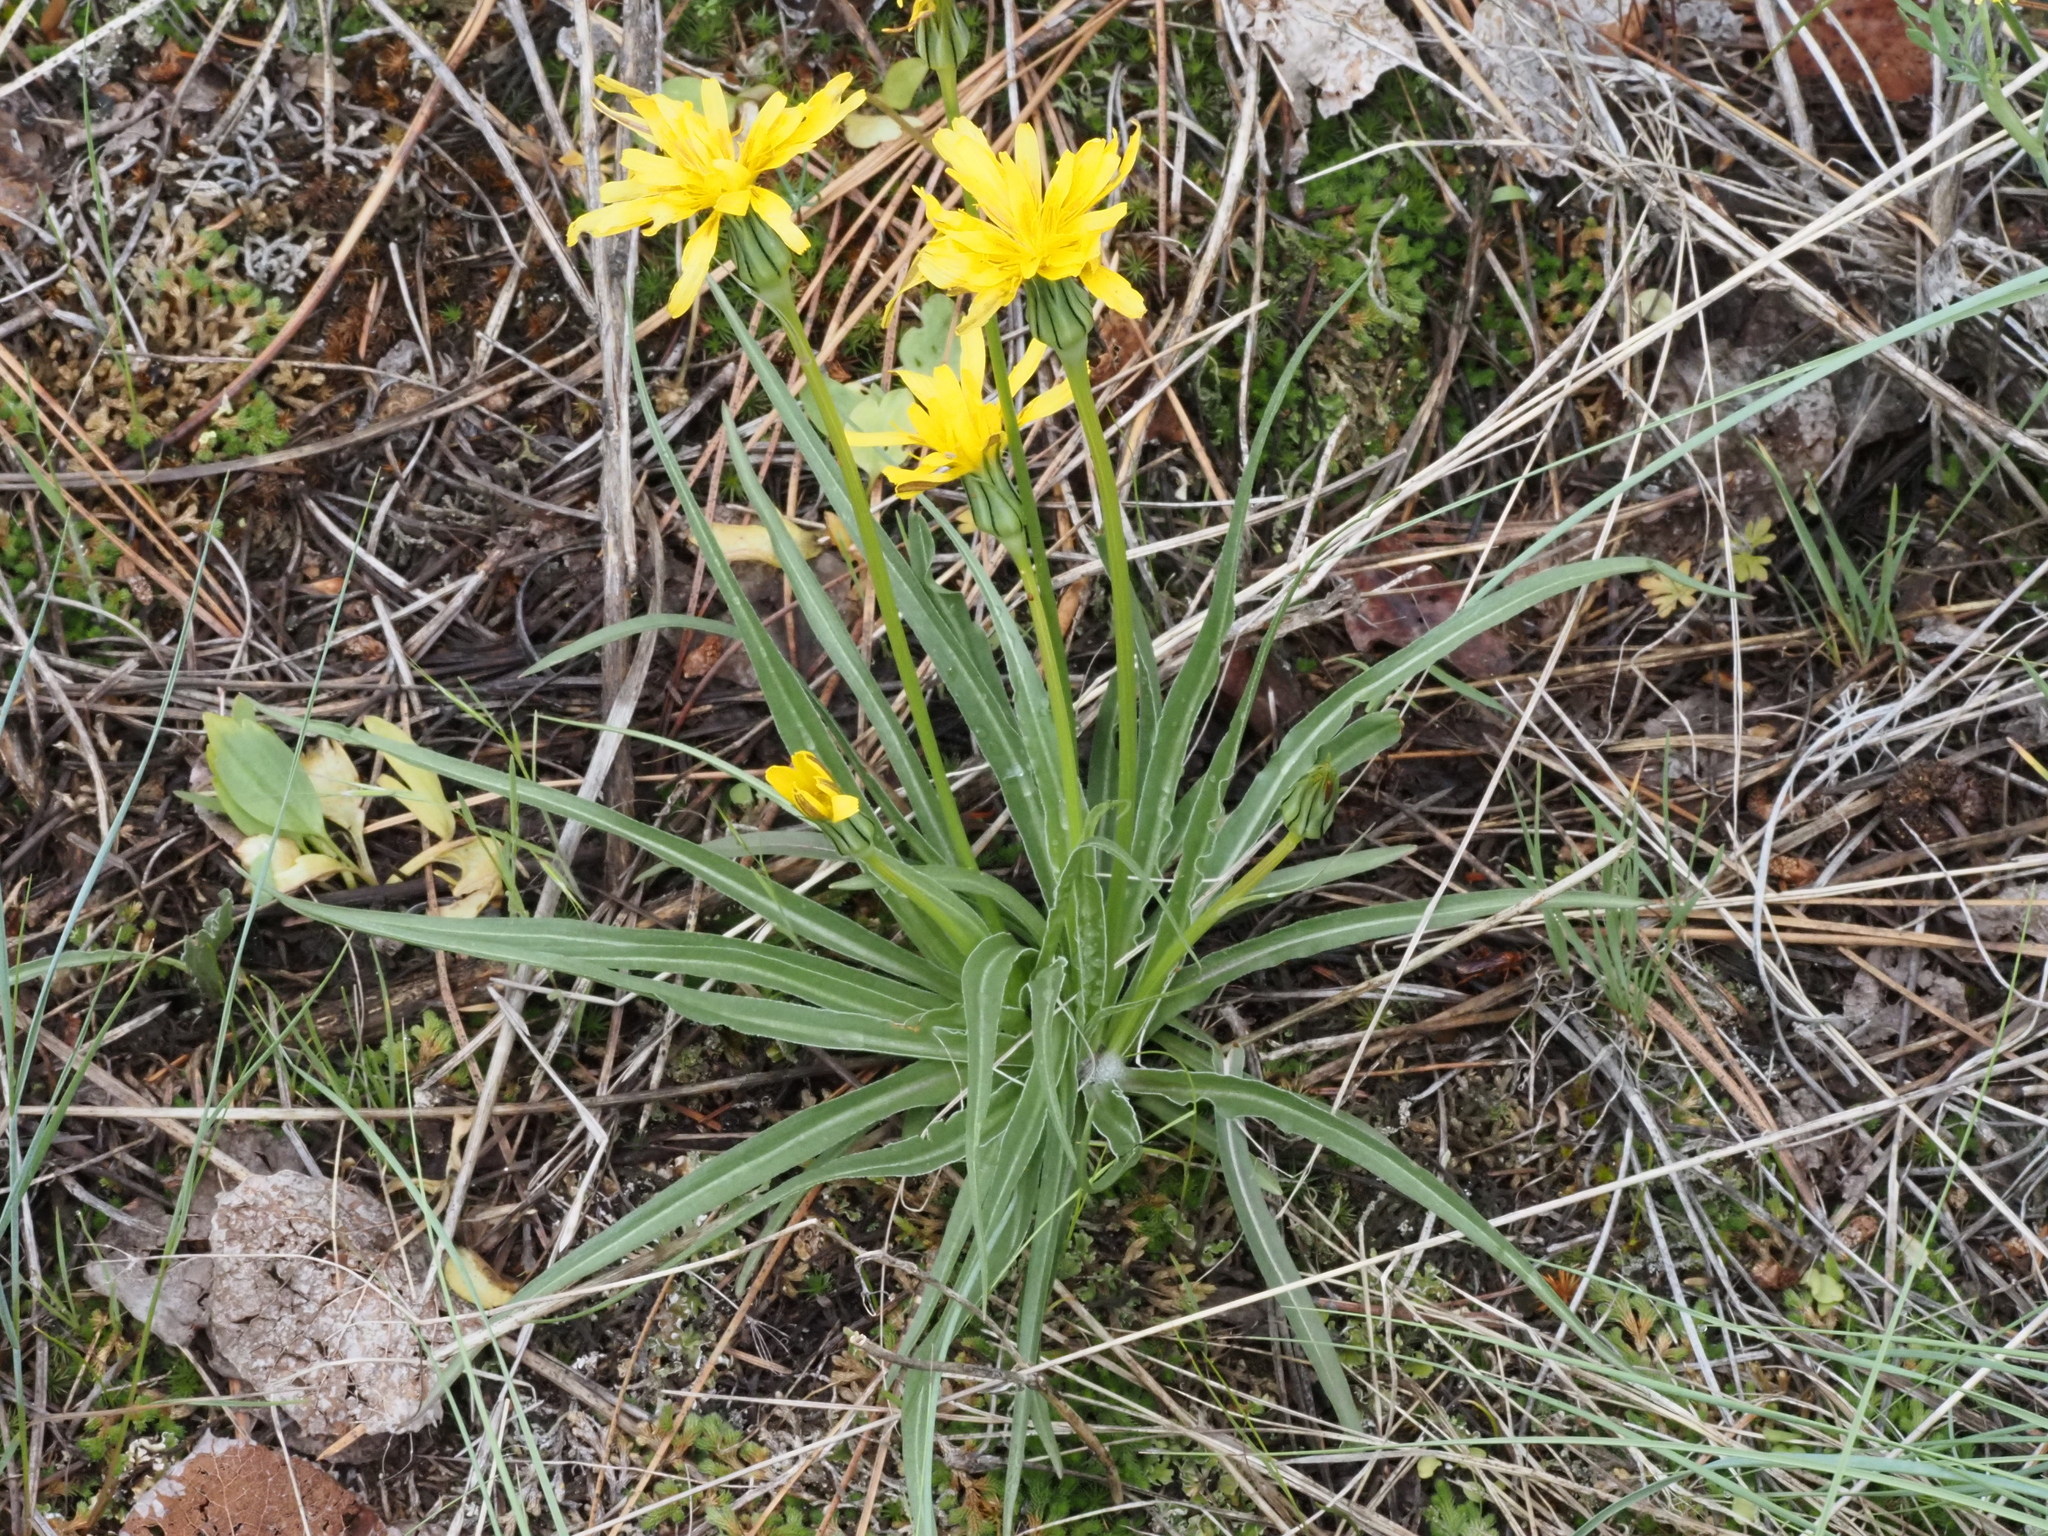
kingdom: Plantae
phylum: Tracheophyta
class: Magnoliopsida
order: Asterales
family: Asteraceae
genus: Microseris
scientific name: Microseris troximoides
